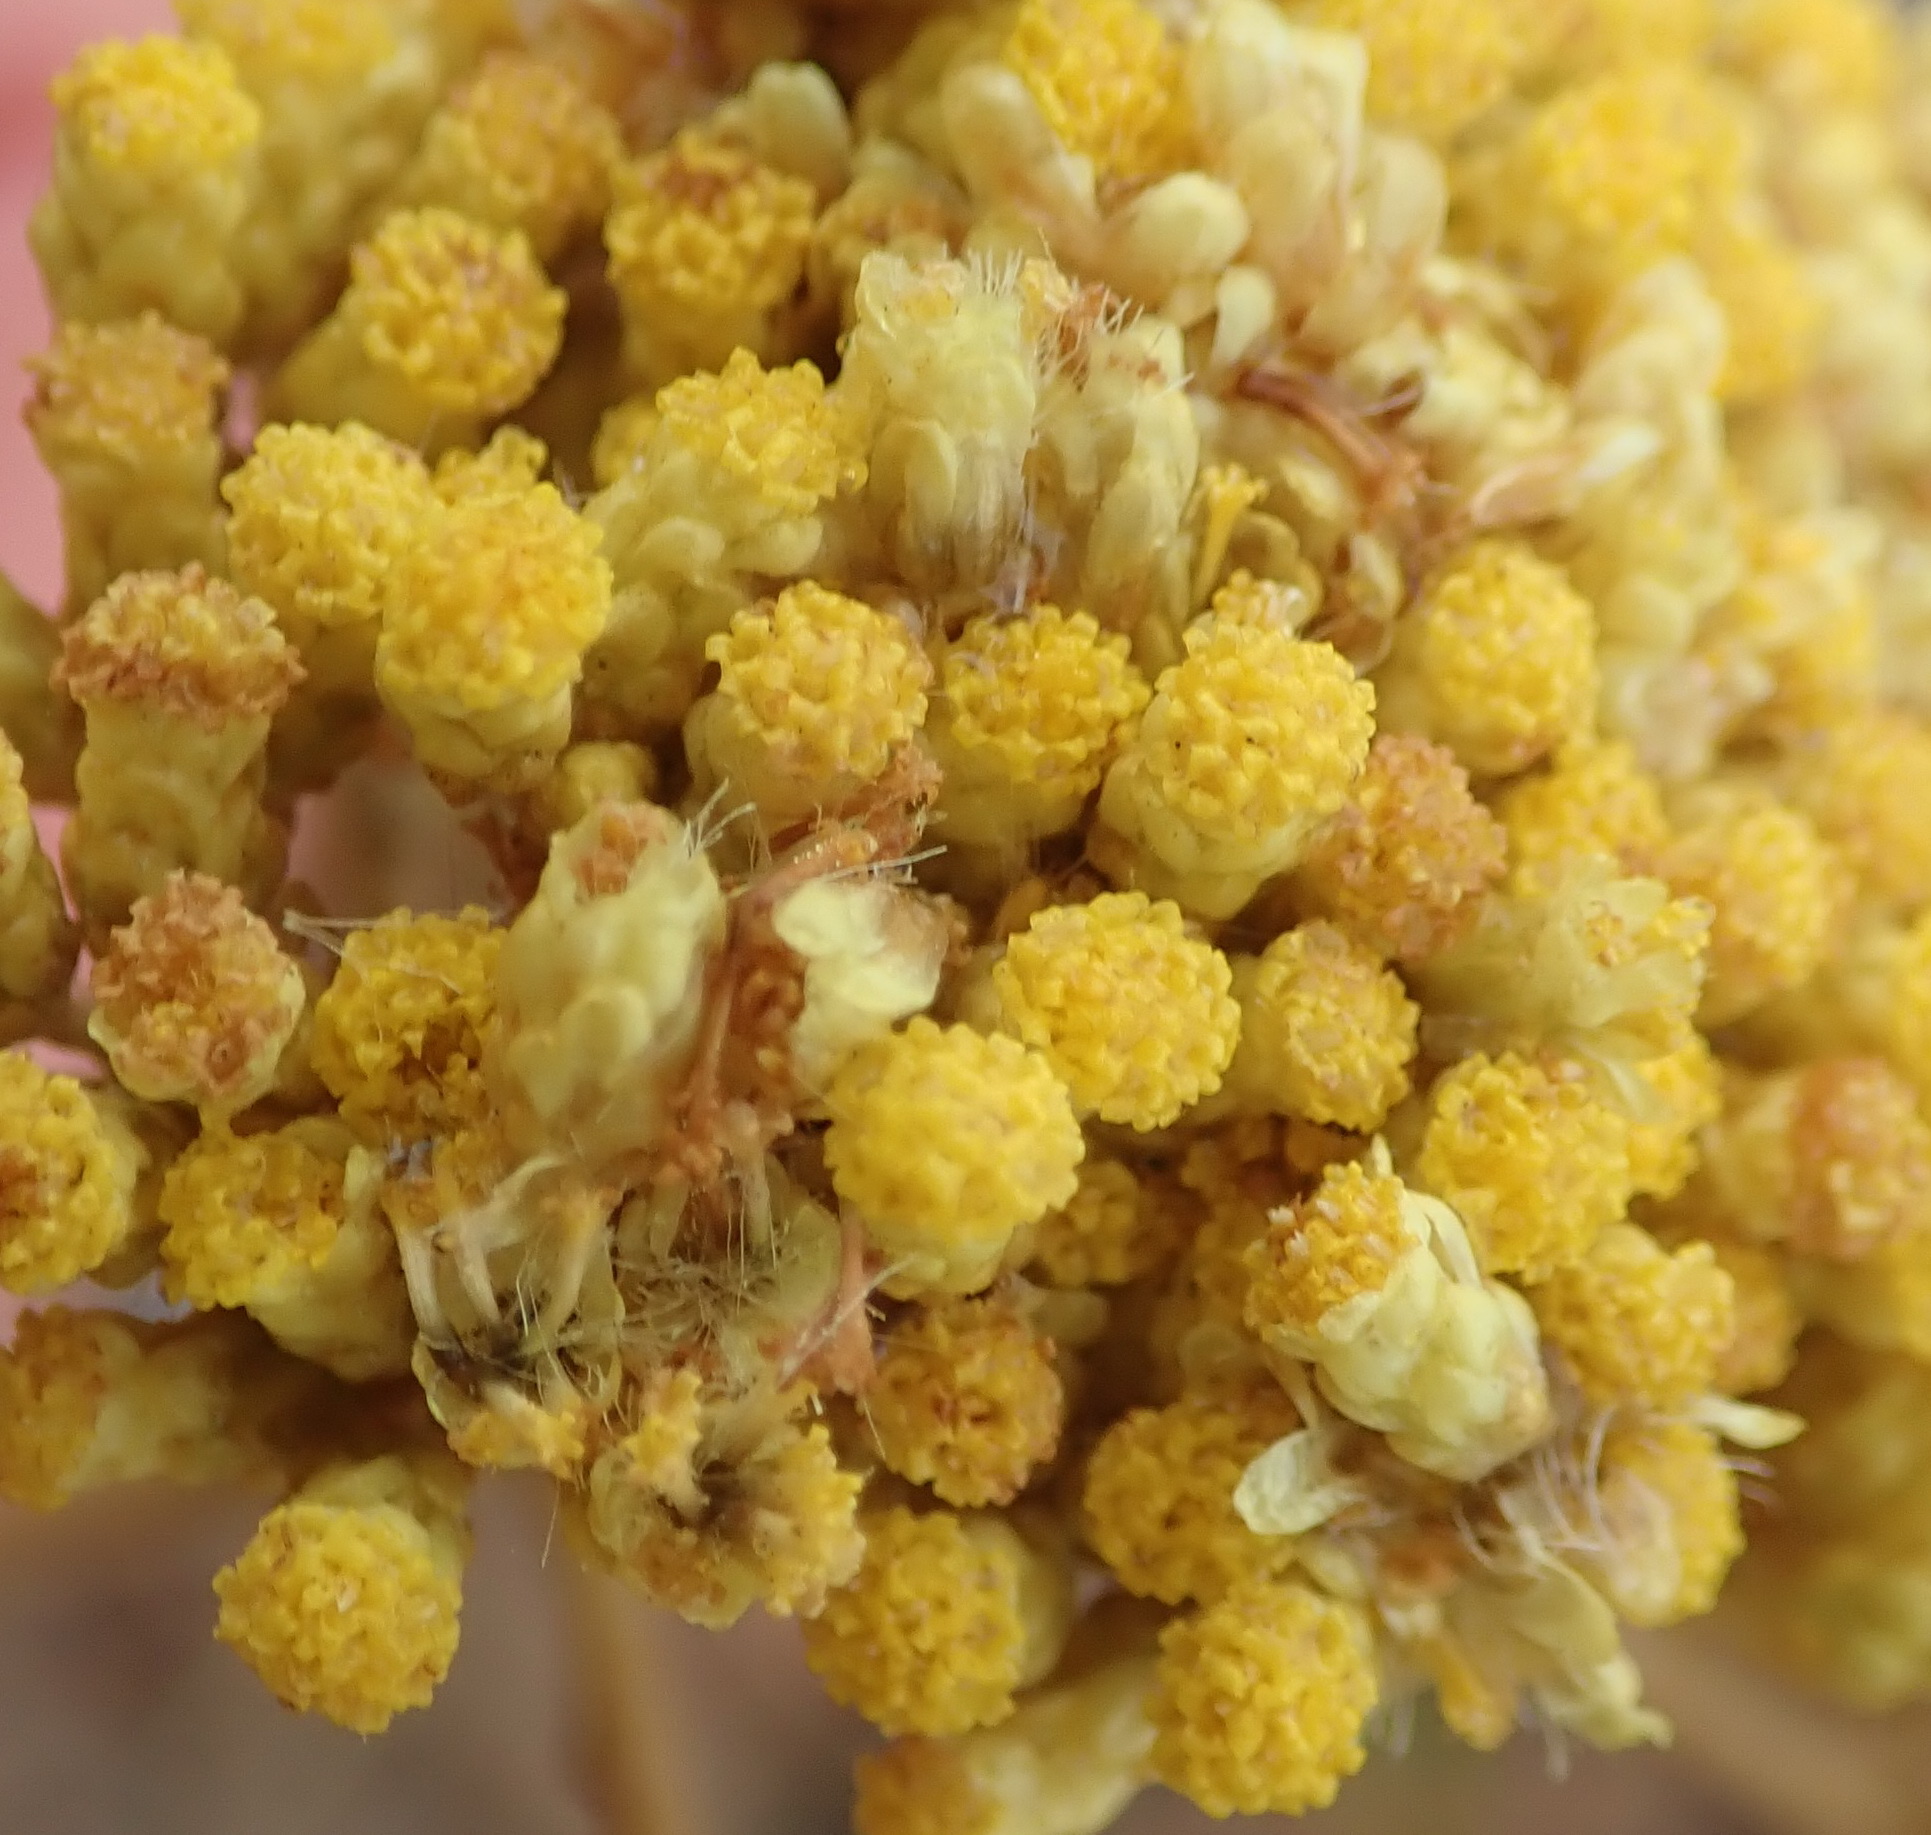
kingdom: Plantae
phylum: Tracheophyta
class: Magnoliopsida
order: Asterales
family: Asteraceae
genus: Helichrysum
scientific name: Helichrysum nudifolium
